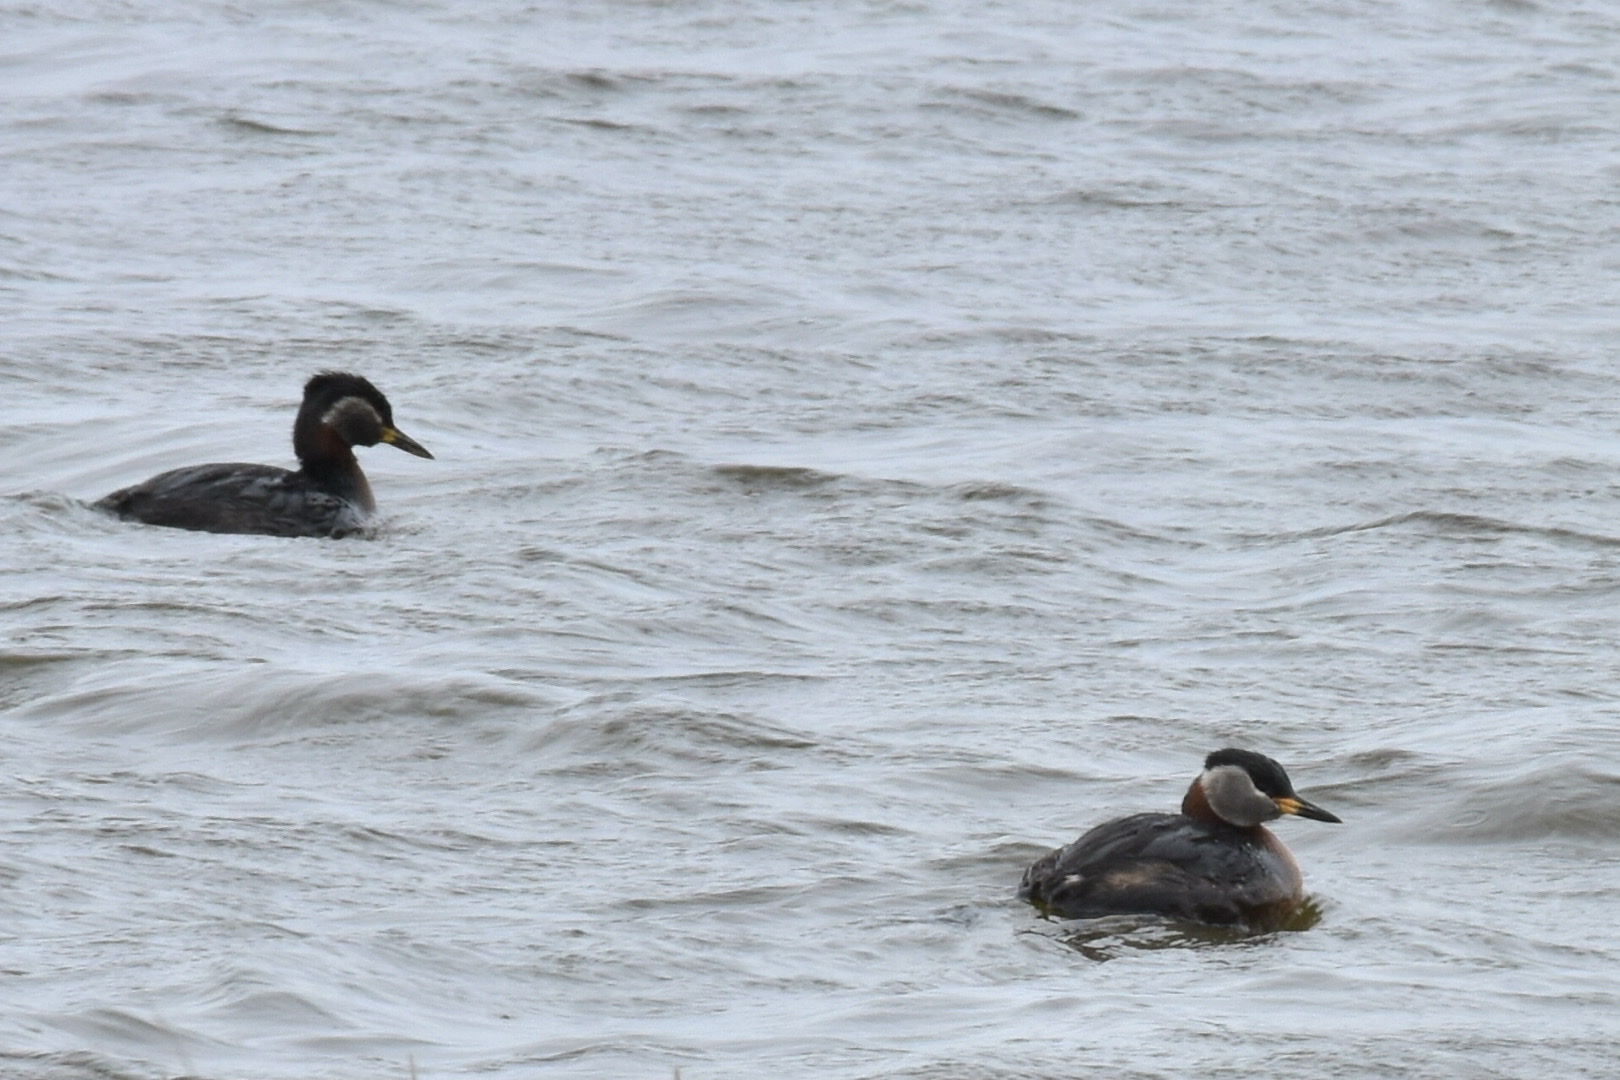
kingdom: Animalia
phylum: Chordata
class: Aves
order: Podicipediformes
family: Podicipedidae
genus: Podiceps
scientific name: Podiceps grisegena
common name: Red-necked grebe
